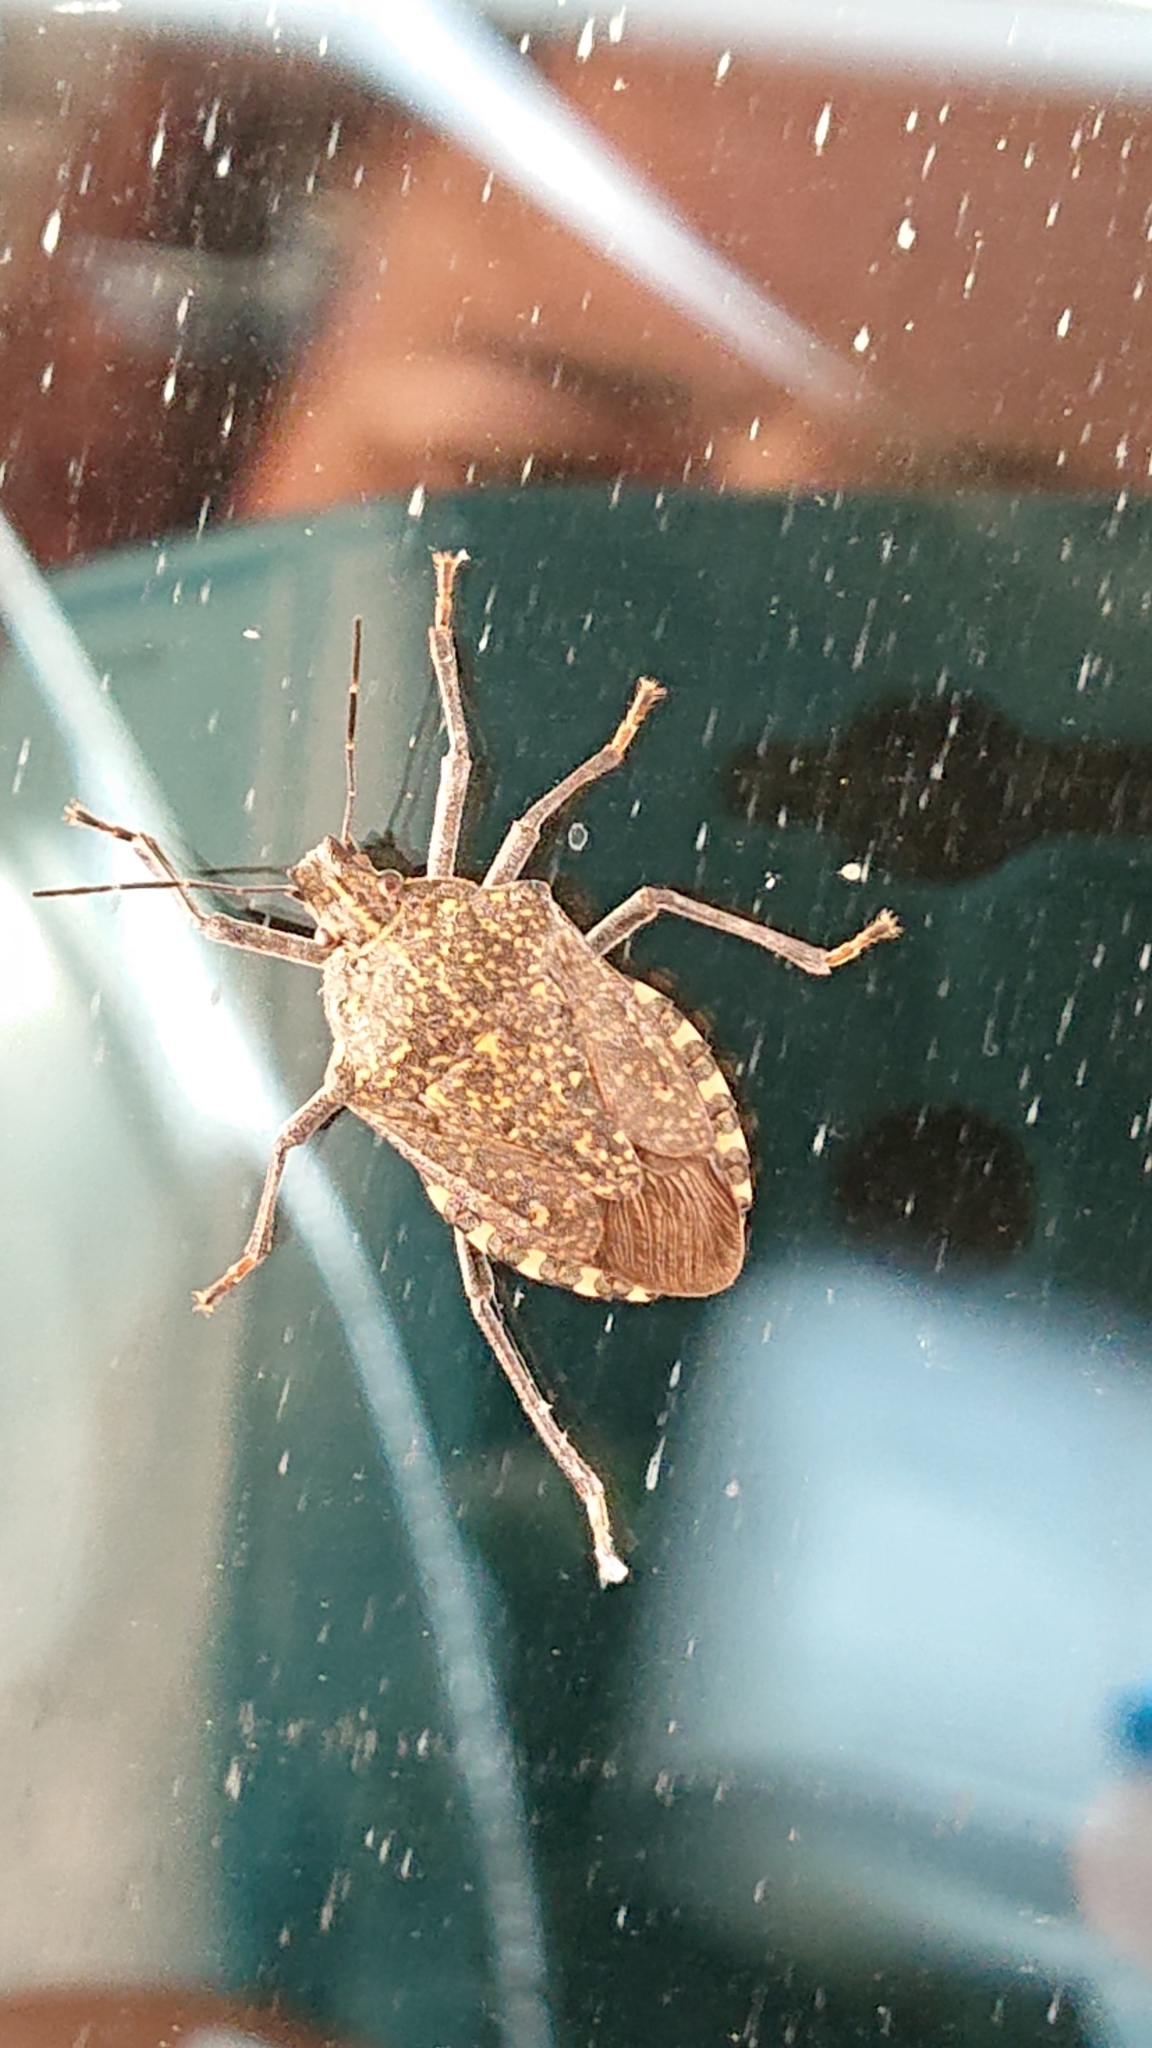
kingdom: Animalia
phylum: Arthropoda
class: Insecta
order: Hemiptera
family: Pentatomidae
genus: Apodiphus
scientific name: Apodiphus amygdali
